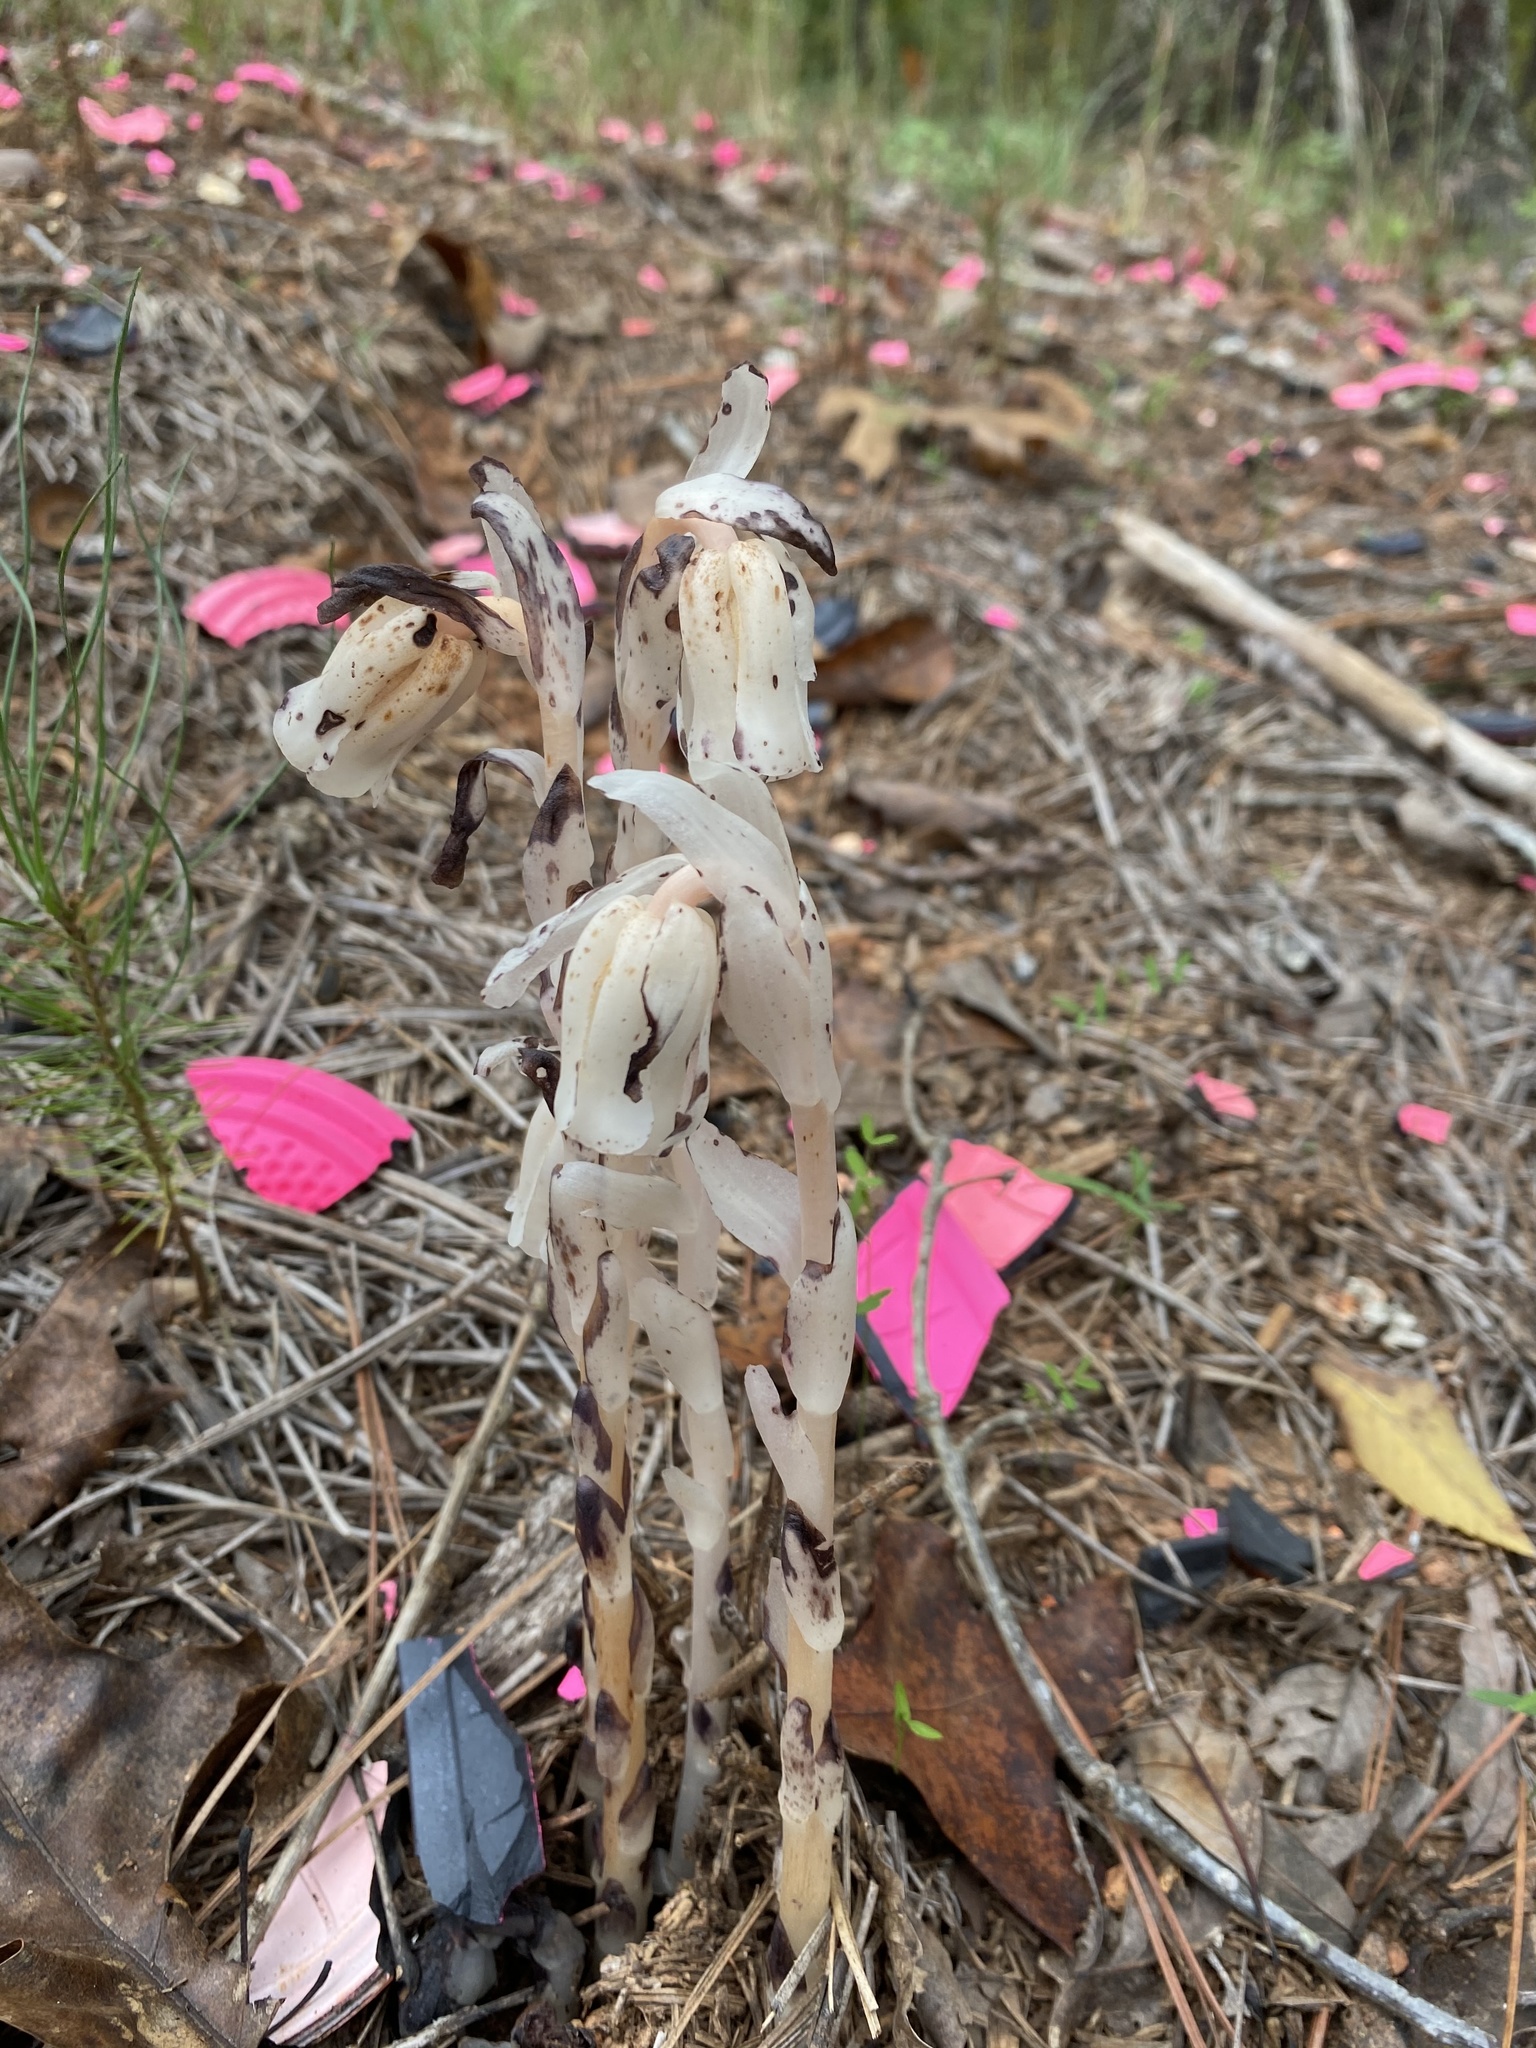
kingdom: Plantae
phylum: Tracheophyta
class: Magnoliopsida
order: Ericales
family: Ericaceae
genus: Monotropa
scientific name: Monotropa uniflora
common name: Convulsion root
